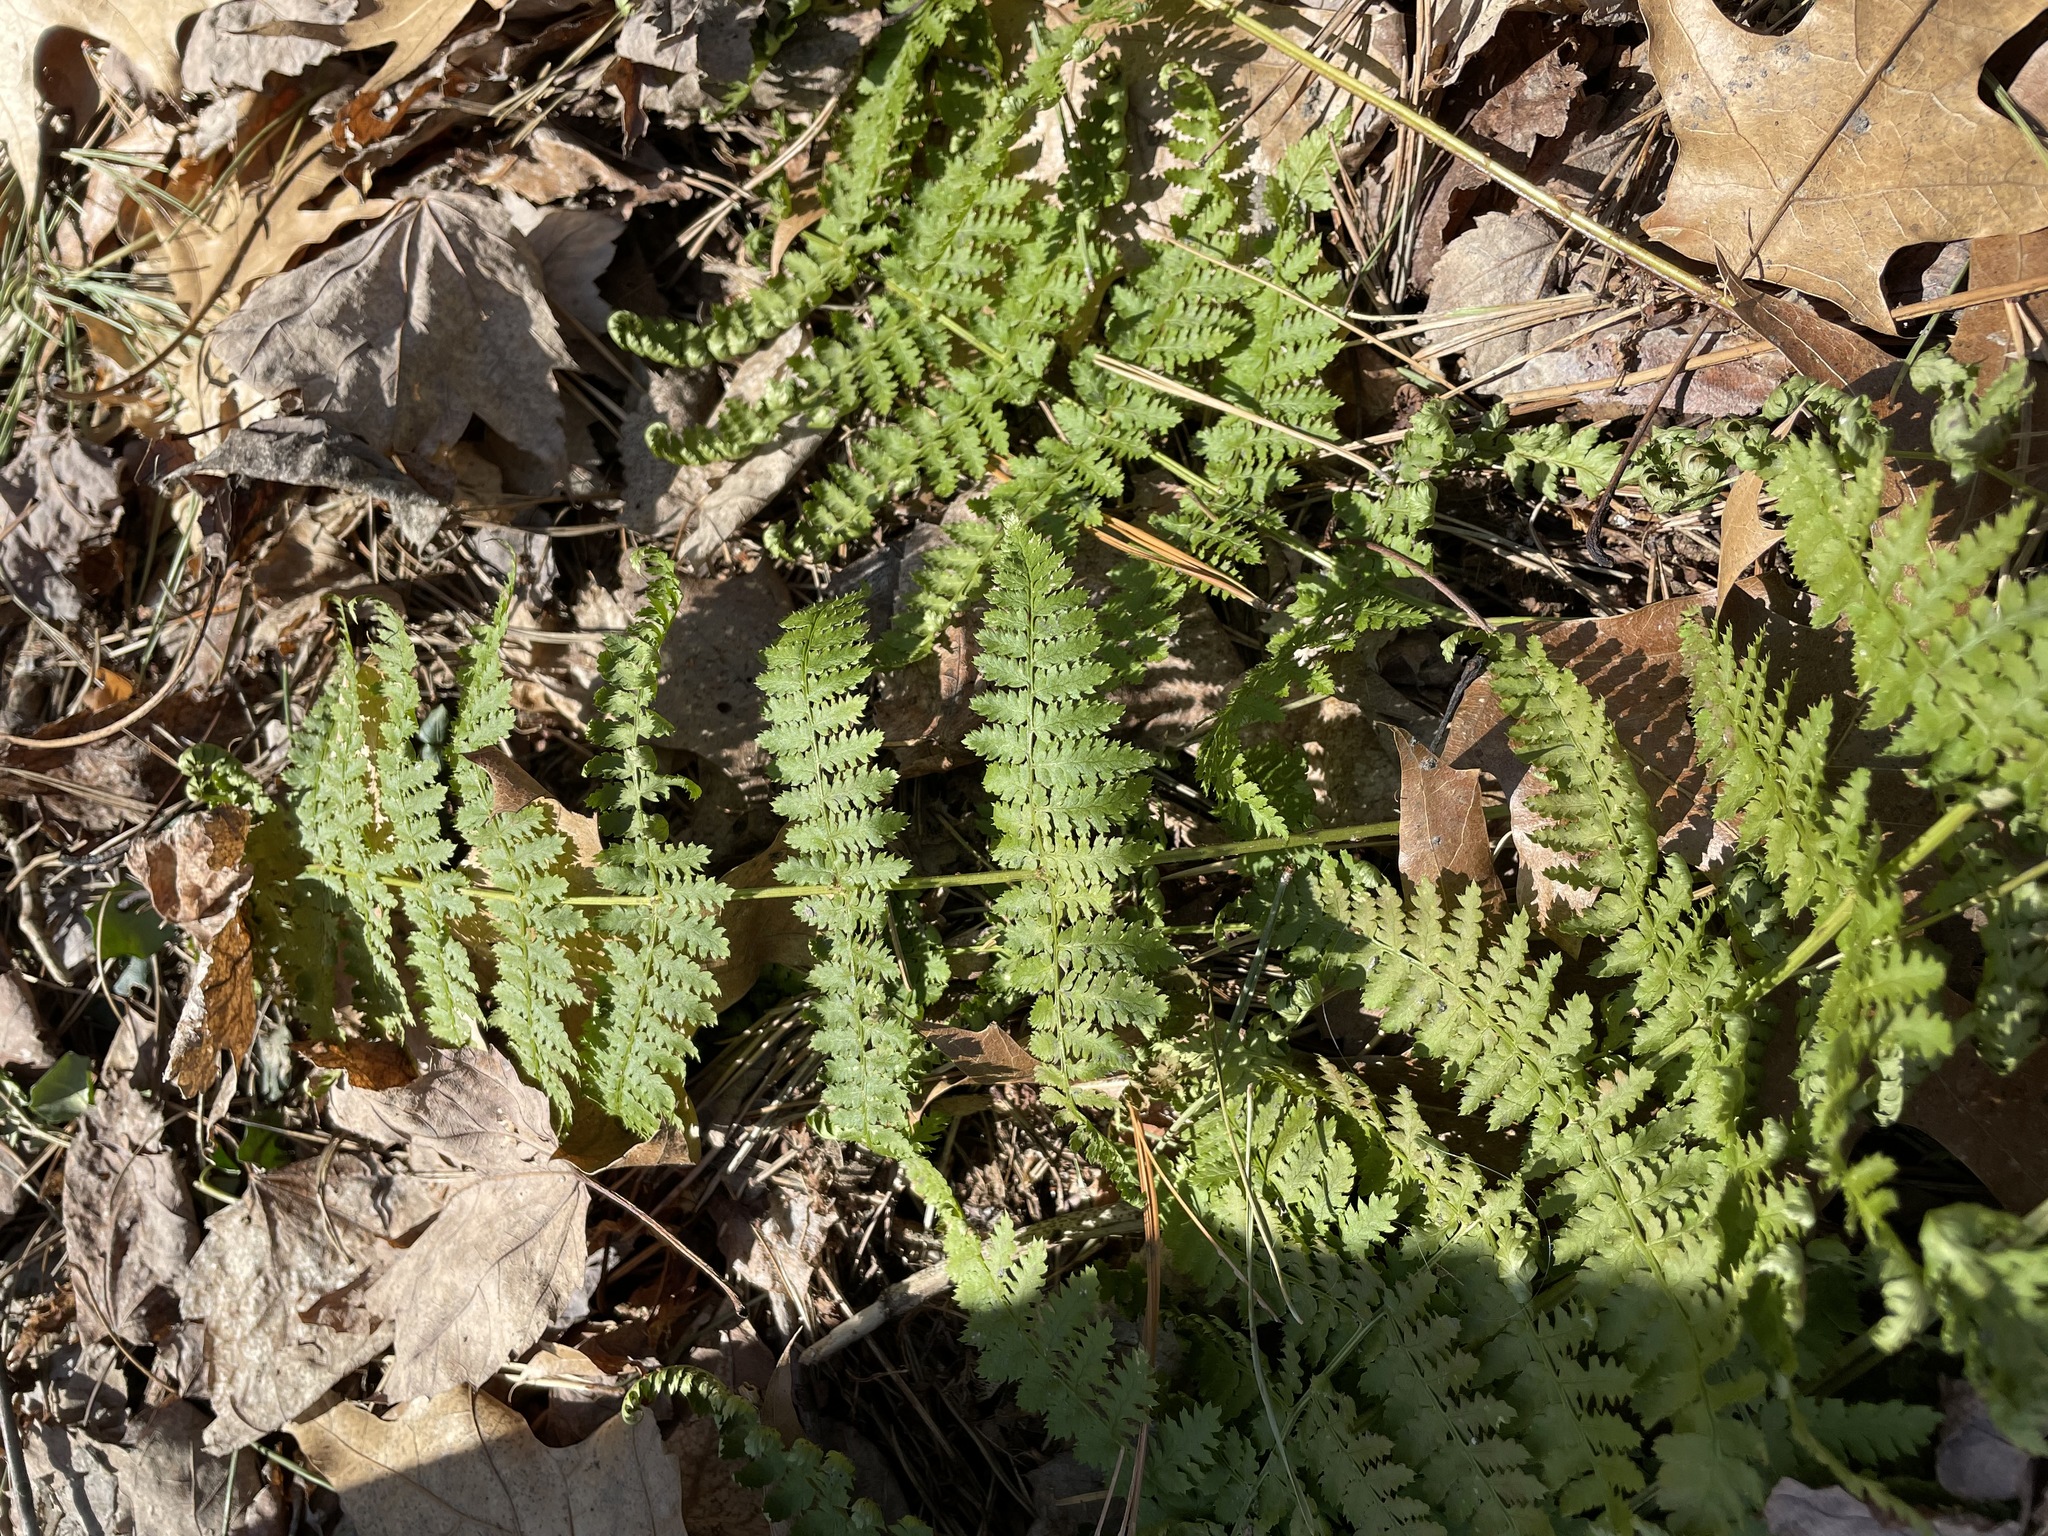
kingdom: Plantae
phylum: Tracheophyta
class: Polypodiopsida
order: Polypodiales
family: Dryopteridaceae
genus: Dryopteris
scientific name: Dryopteris intermedia
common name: Evergreen wood fern
